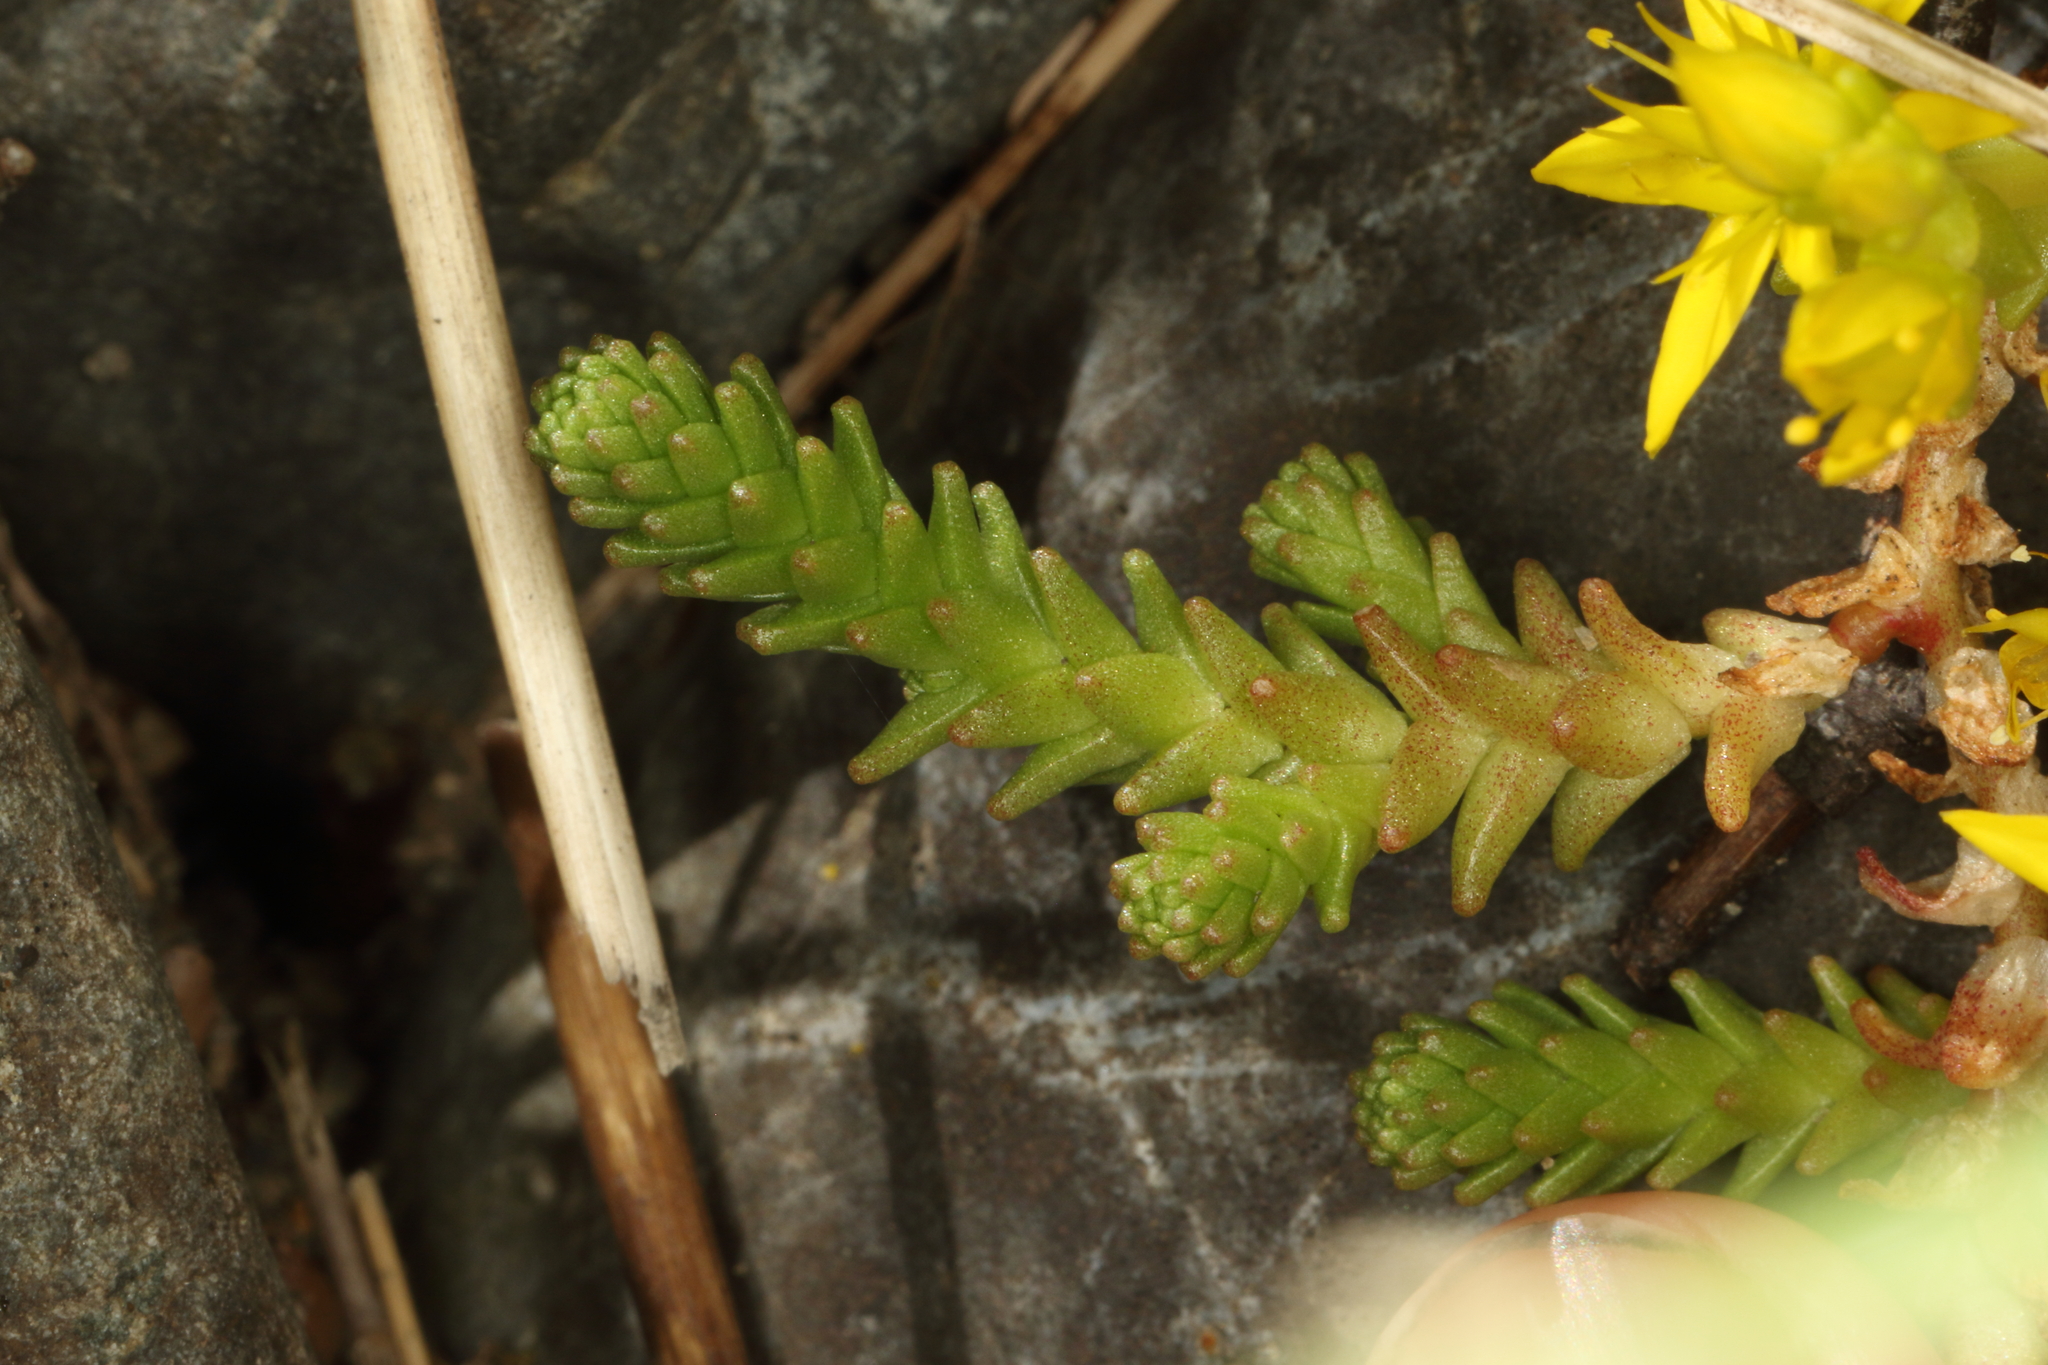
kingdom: Plantae
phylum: Tracheophyta
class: Magnoliopsida
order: Saxifragales
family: Crassulaceae
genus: Sedum
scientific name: Sedum acre
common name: Biting stonecrop
